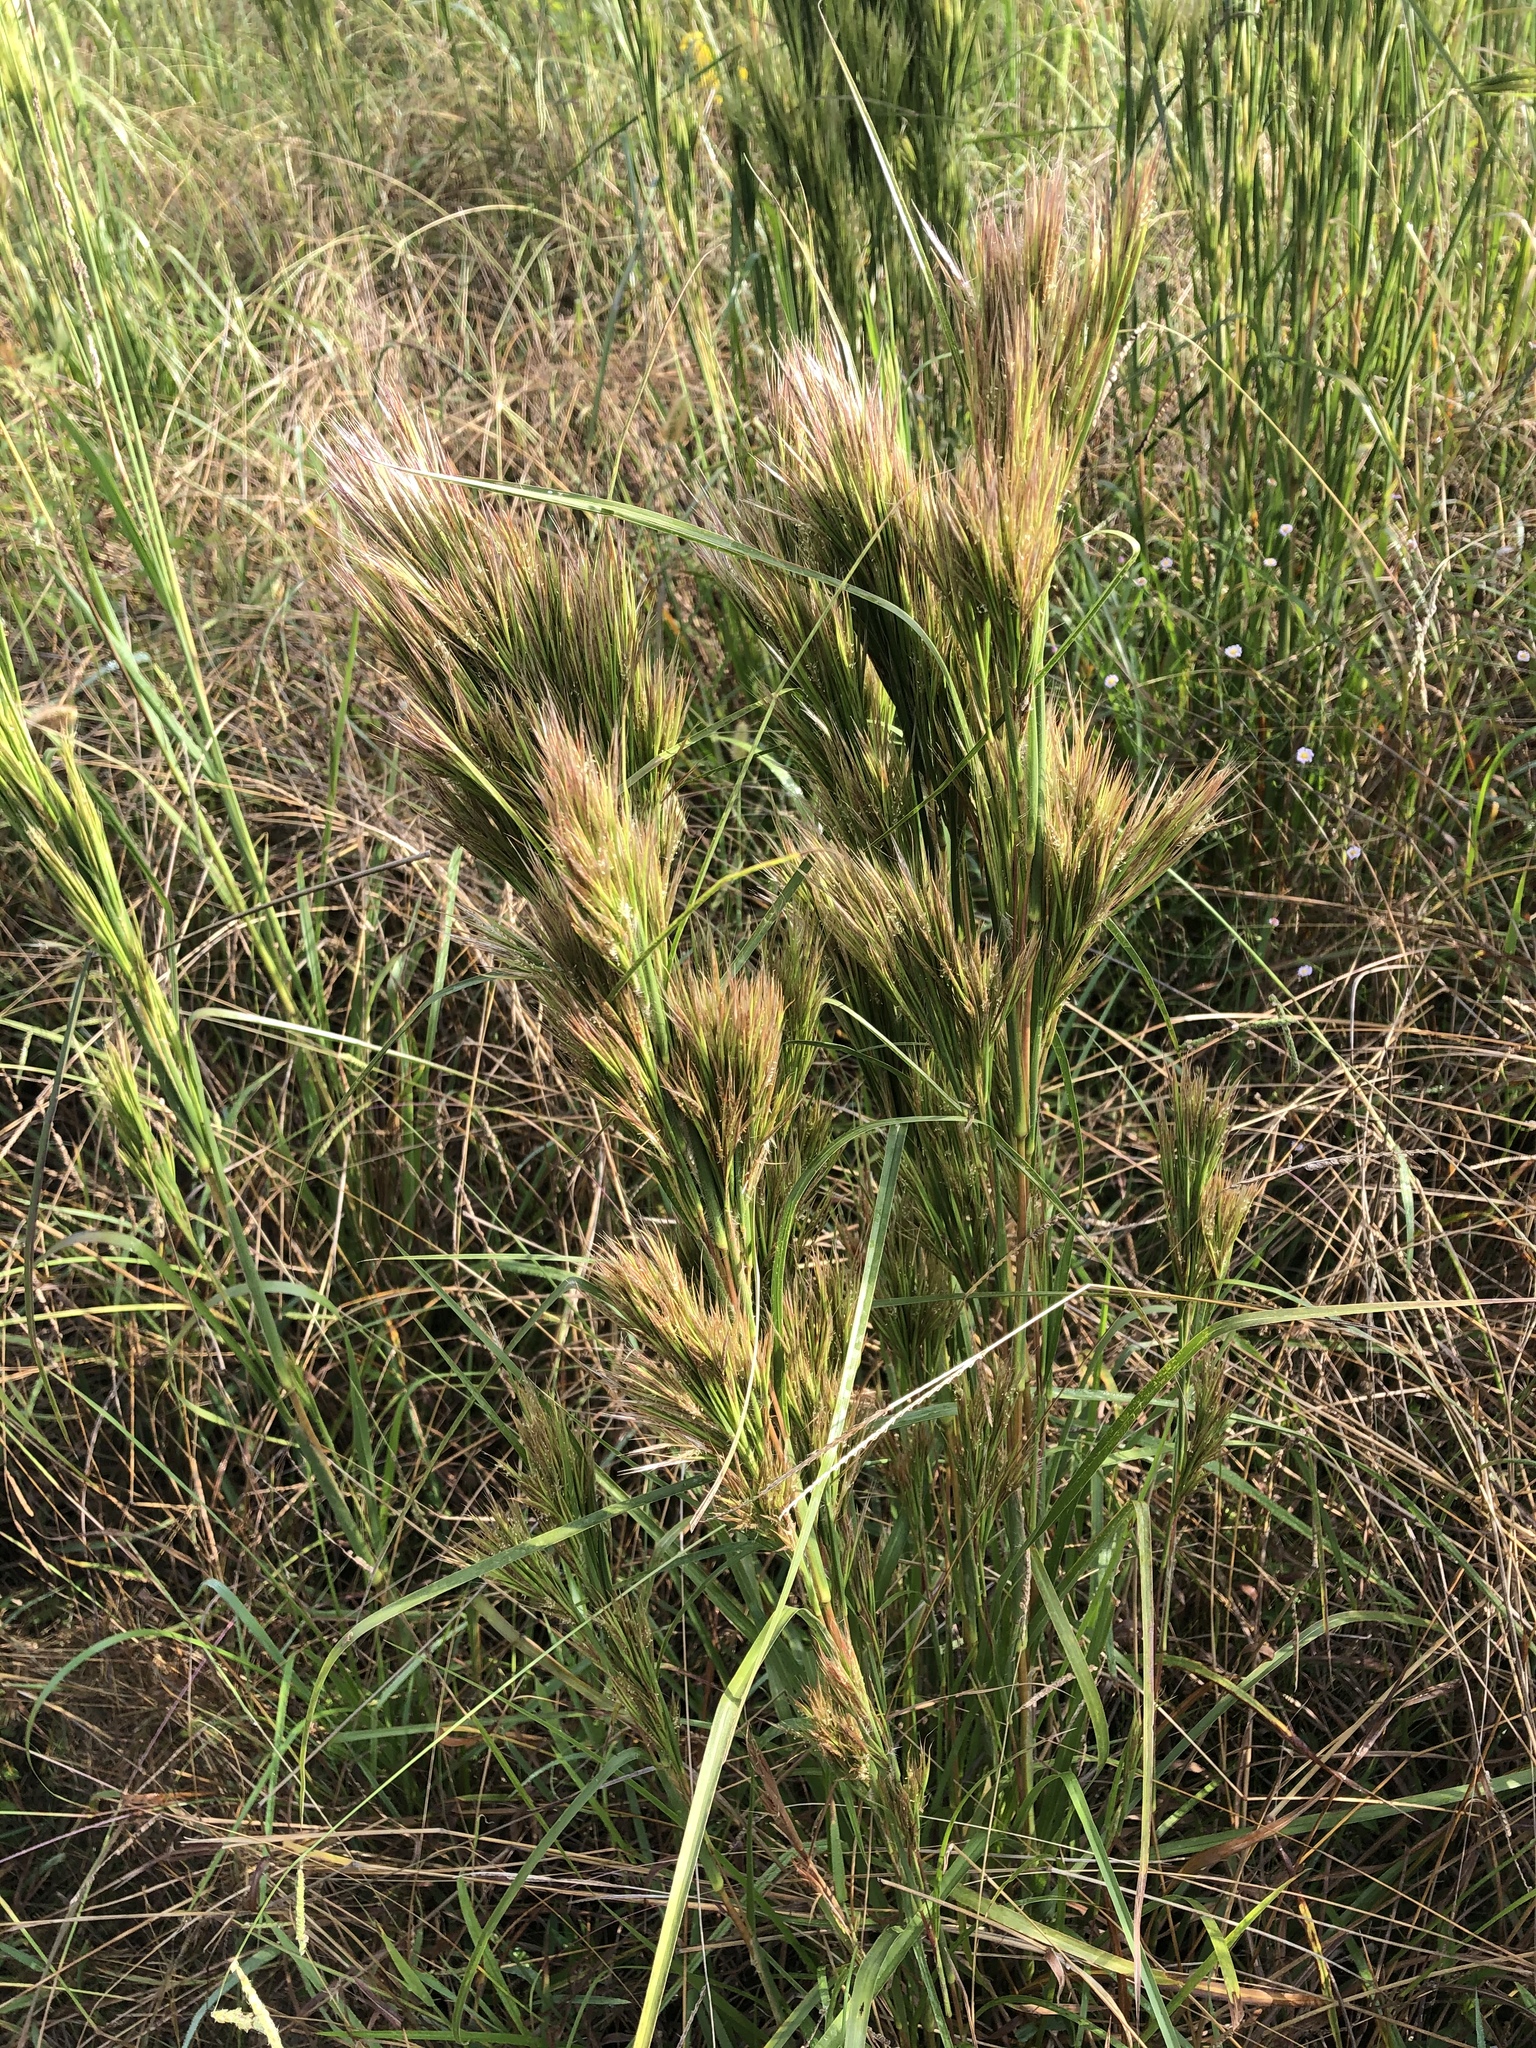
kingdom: Plantae
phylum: Tracheophyta
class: Liliopsida
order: Poales
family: Poaceae
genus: Andropogon
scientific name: Andropogon tenuispatheus
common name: Bushy bluestem
